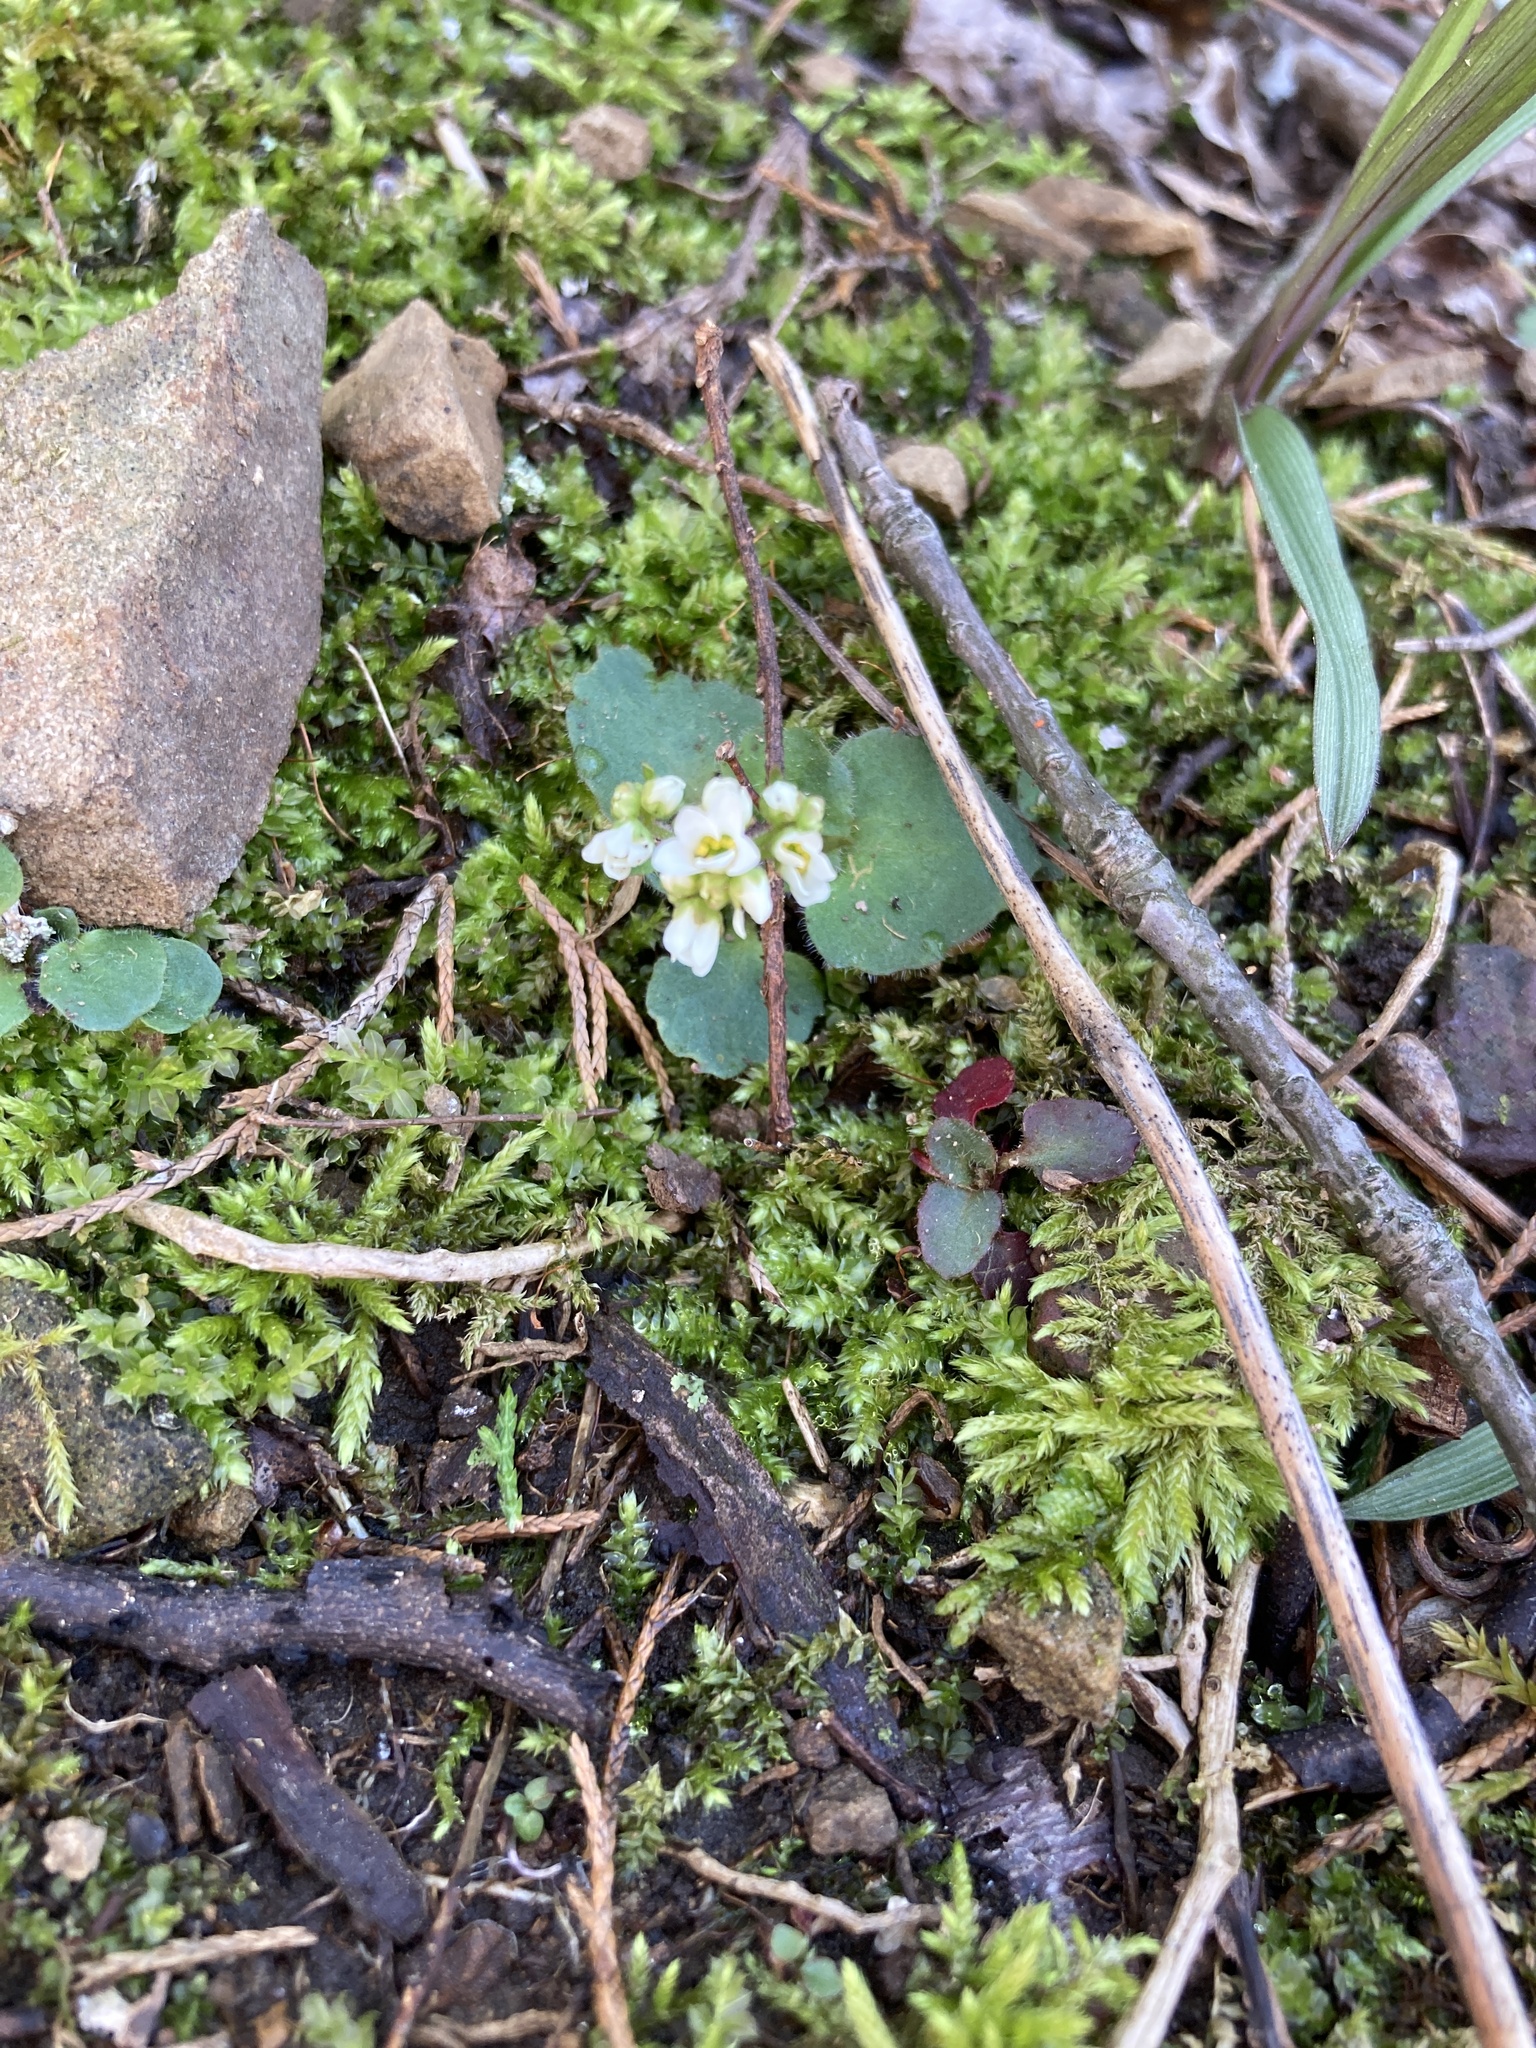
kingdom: Plantae
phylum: Tracheophyta
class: Magnoliopsida
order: Saxifragales
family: Saxifragaceae
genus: Micranthes
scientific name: Micranthes virginiensis
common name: Early saxifrage
